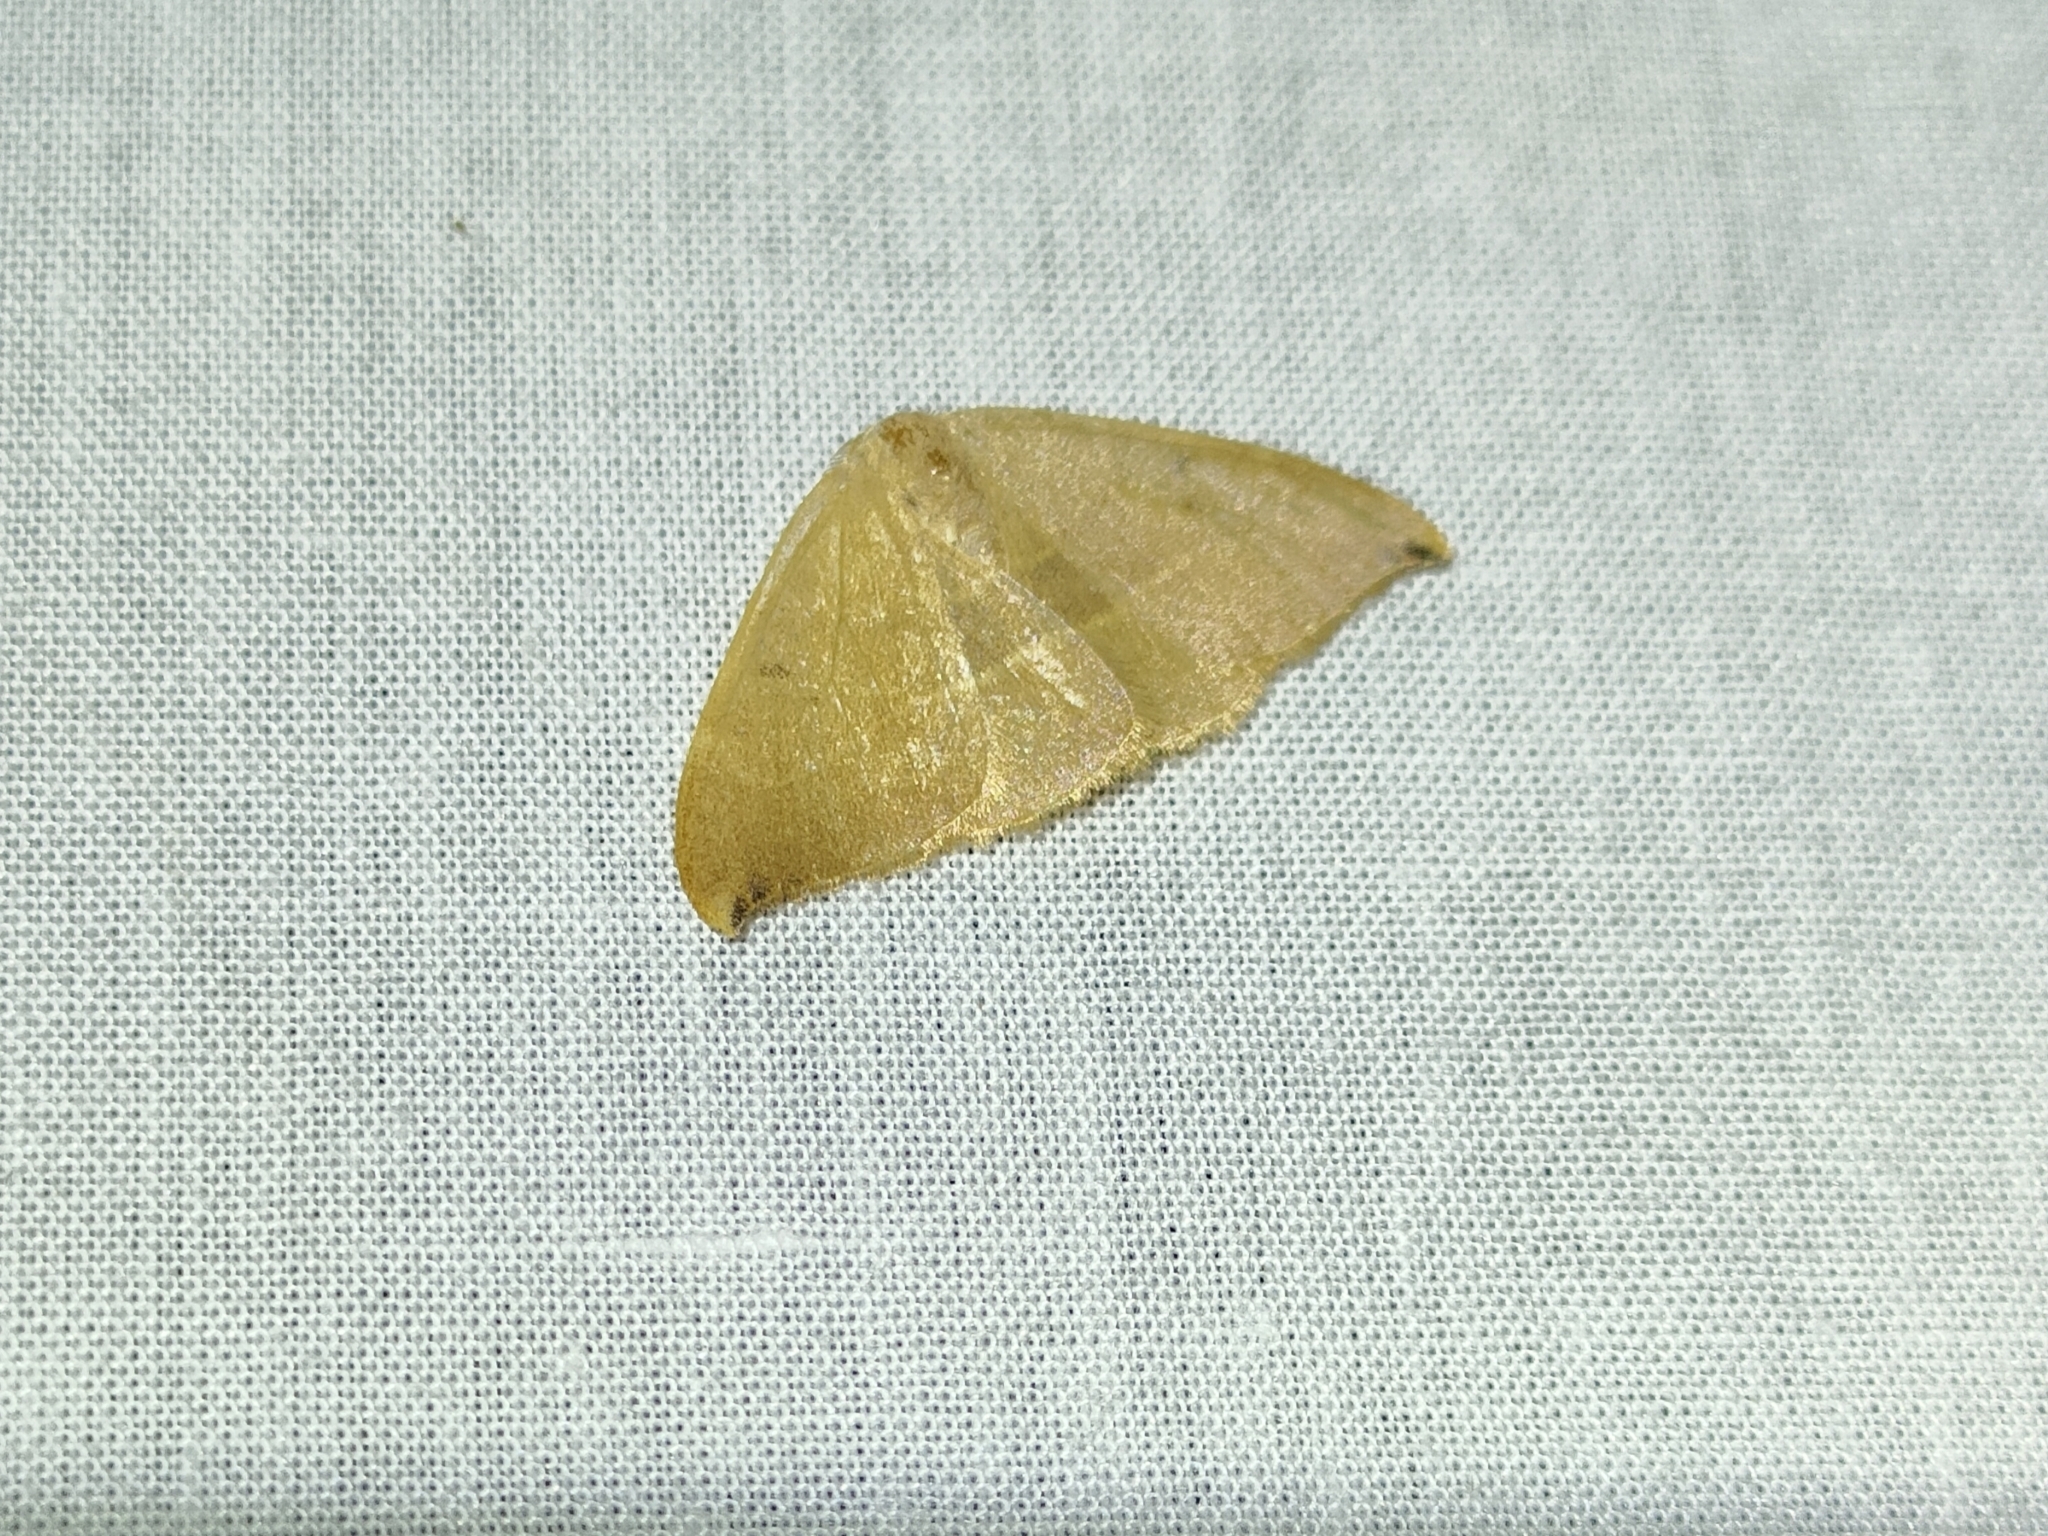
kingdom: Animalia
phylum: Arthropoda
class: Insecta
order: Lepidoptera
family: Drepanidae
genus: Watsonalla
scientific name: Watsonalla uncinula
